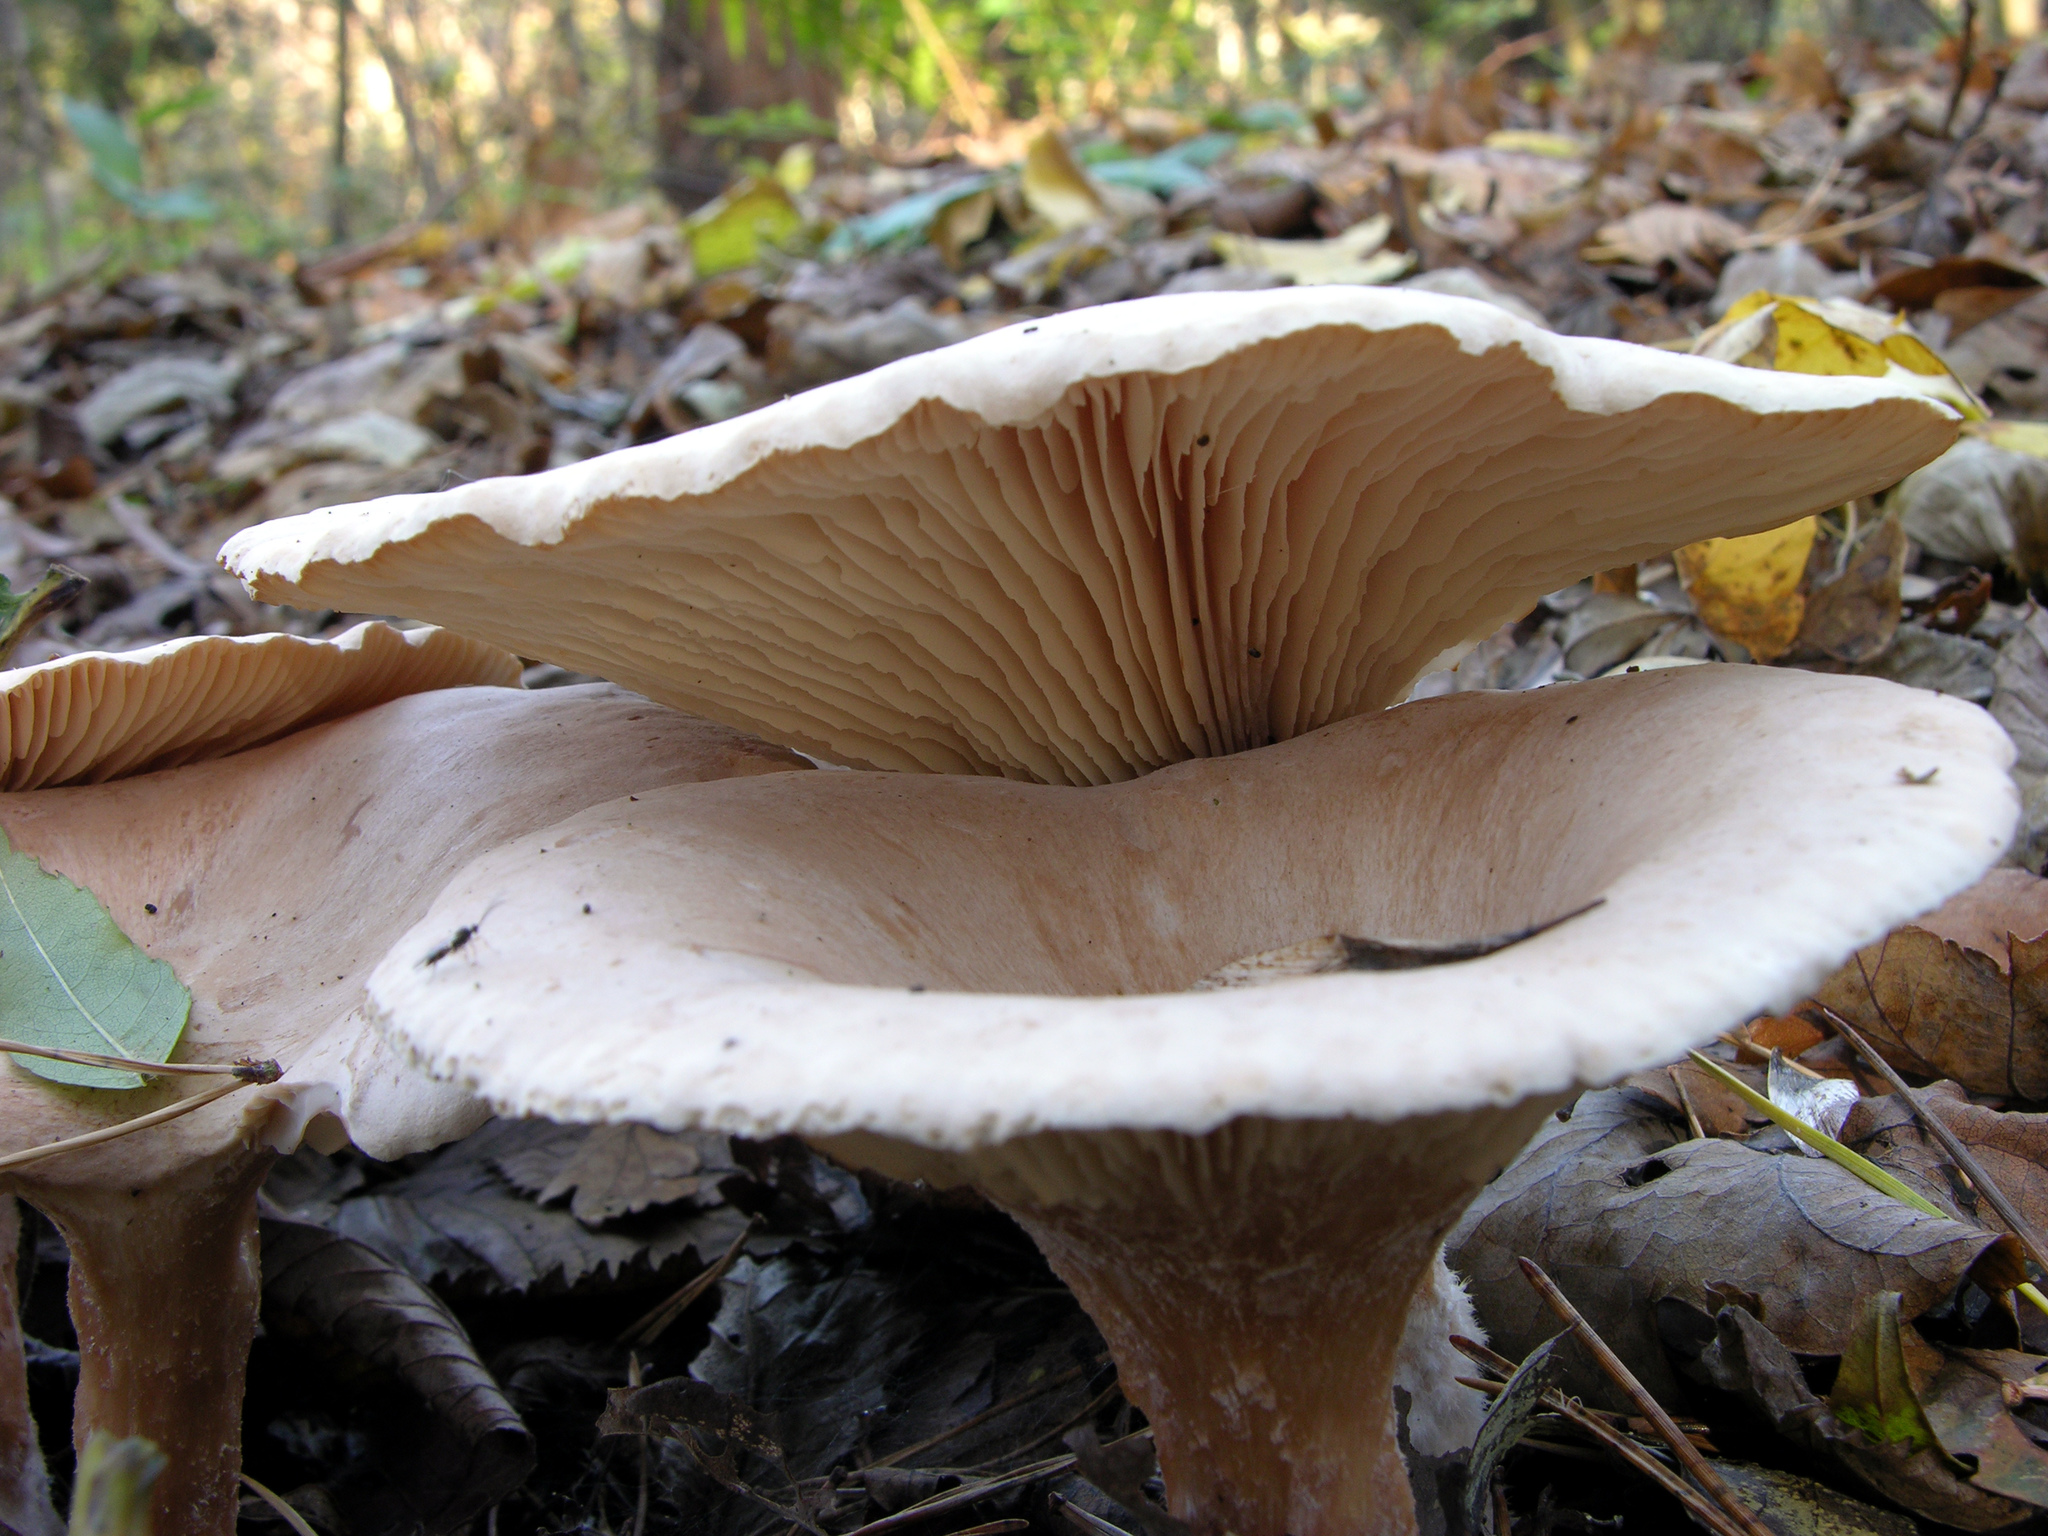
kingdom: Fungi
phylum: Basidiomycota
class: Agaricomycetes
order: Agaricales
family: Tricholomataceae
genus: Infundibulicybe
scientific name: Infundibulicybe geotropa
